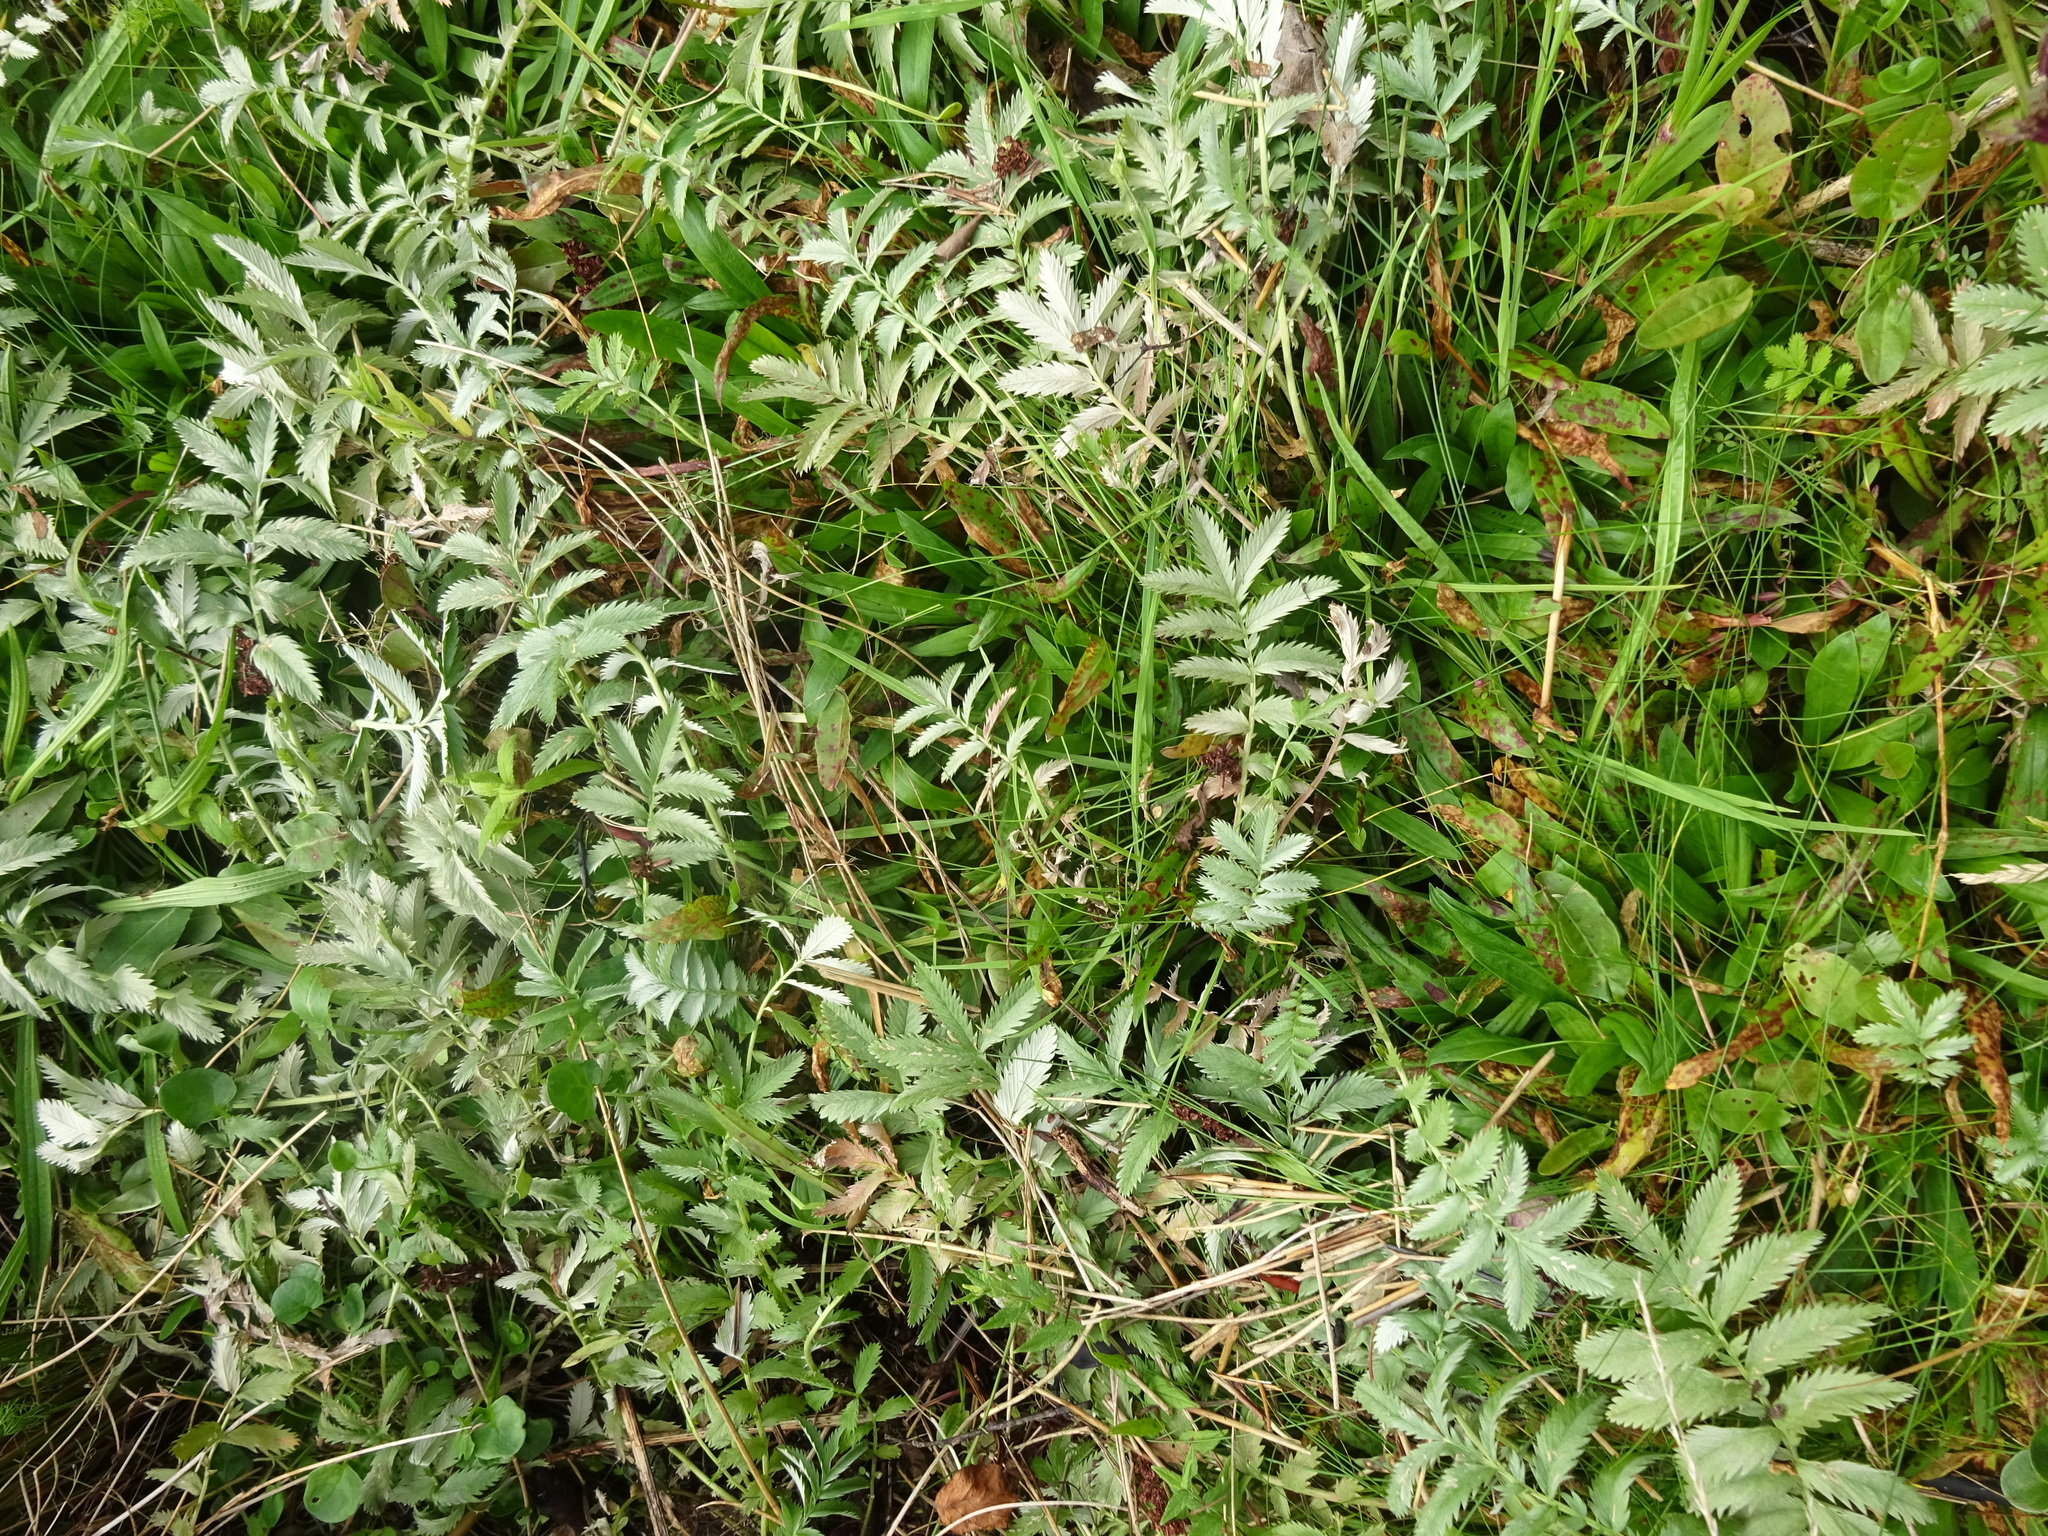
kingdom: Plantae
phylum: Tracheophyta
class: Magnoliopsida
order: Rosales
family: Rosaceae
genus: Argentina
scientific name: Argentina anserina
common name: Common silverweed
